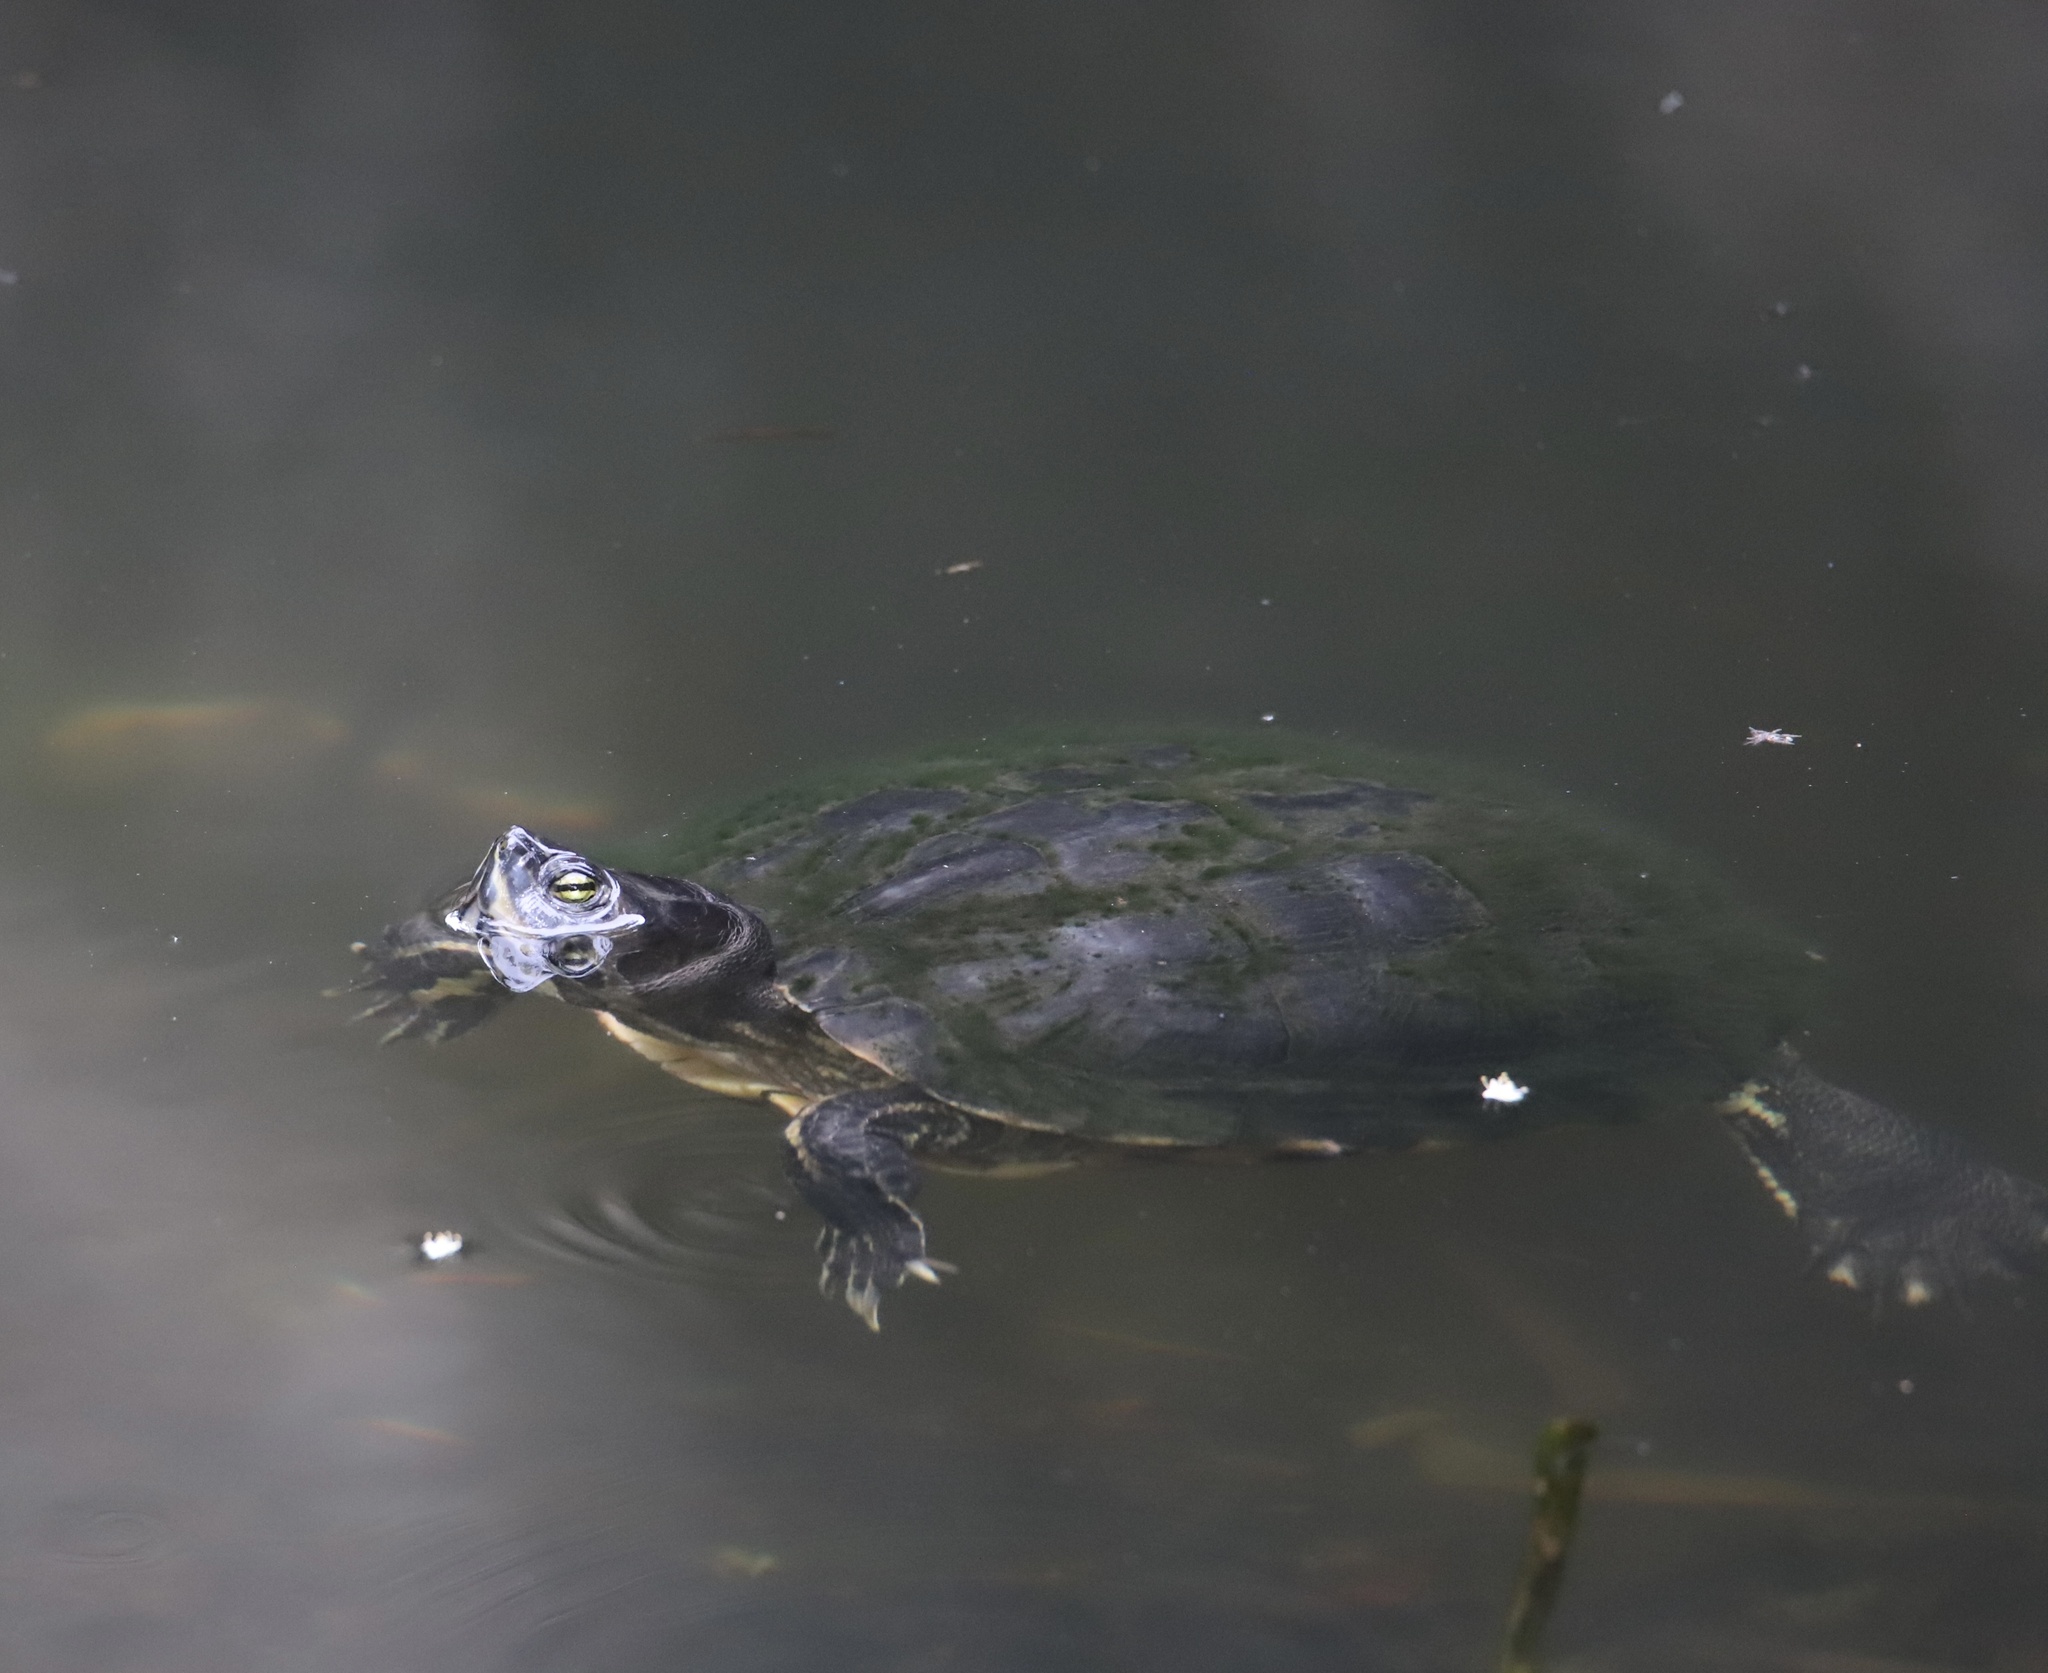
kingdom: Animalia
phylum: Chordata
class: Testudines
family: Emydidae
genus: Trachemys
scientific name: Trachemys scripta
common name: Slider
